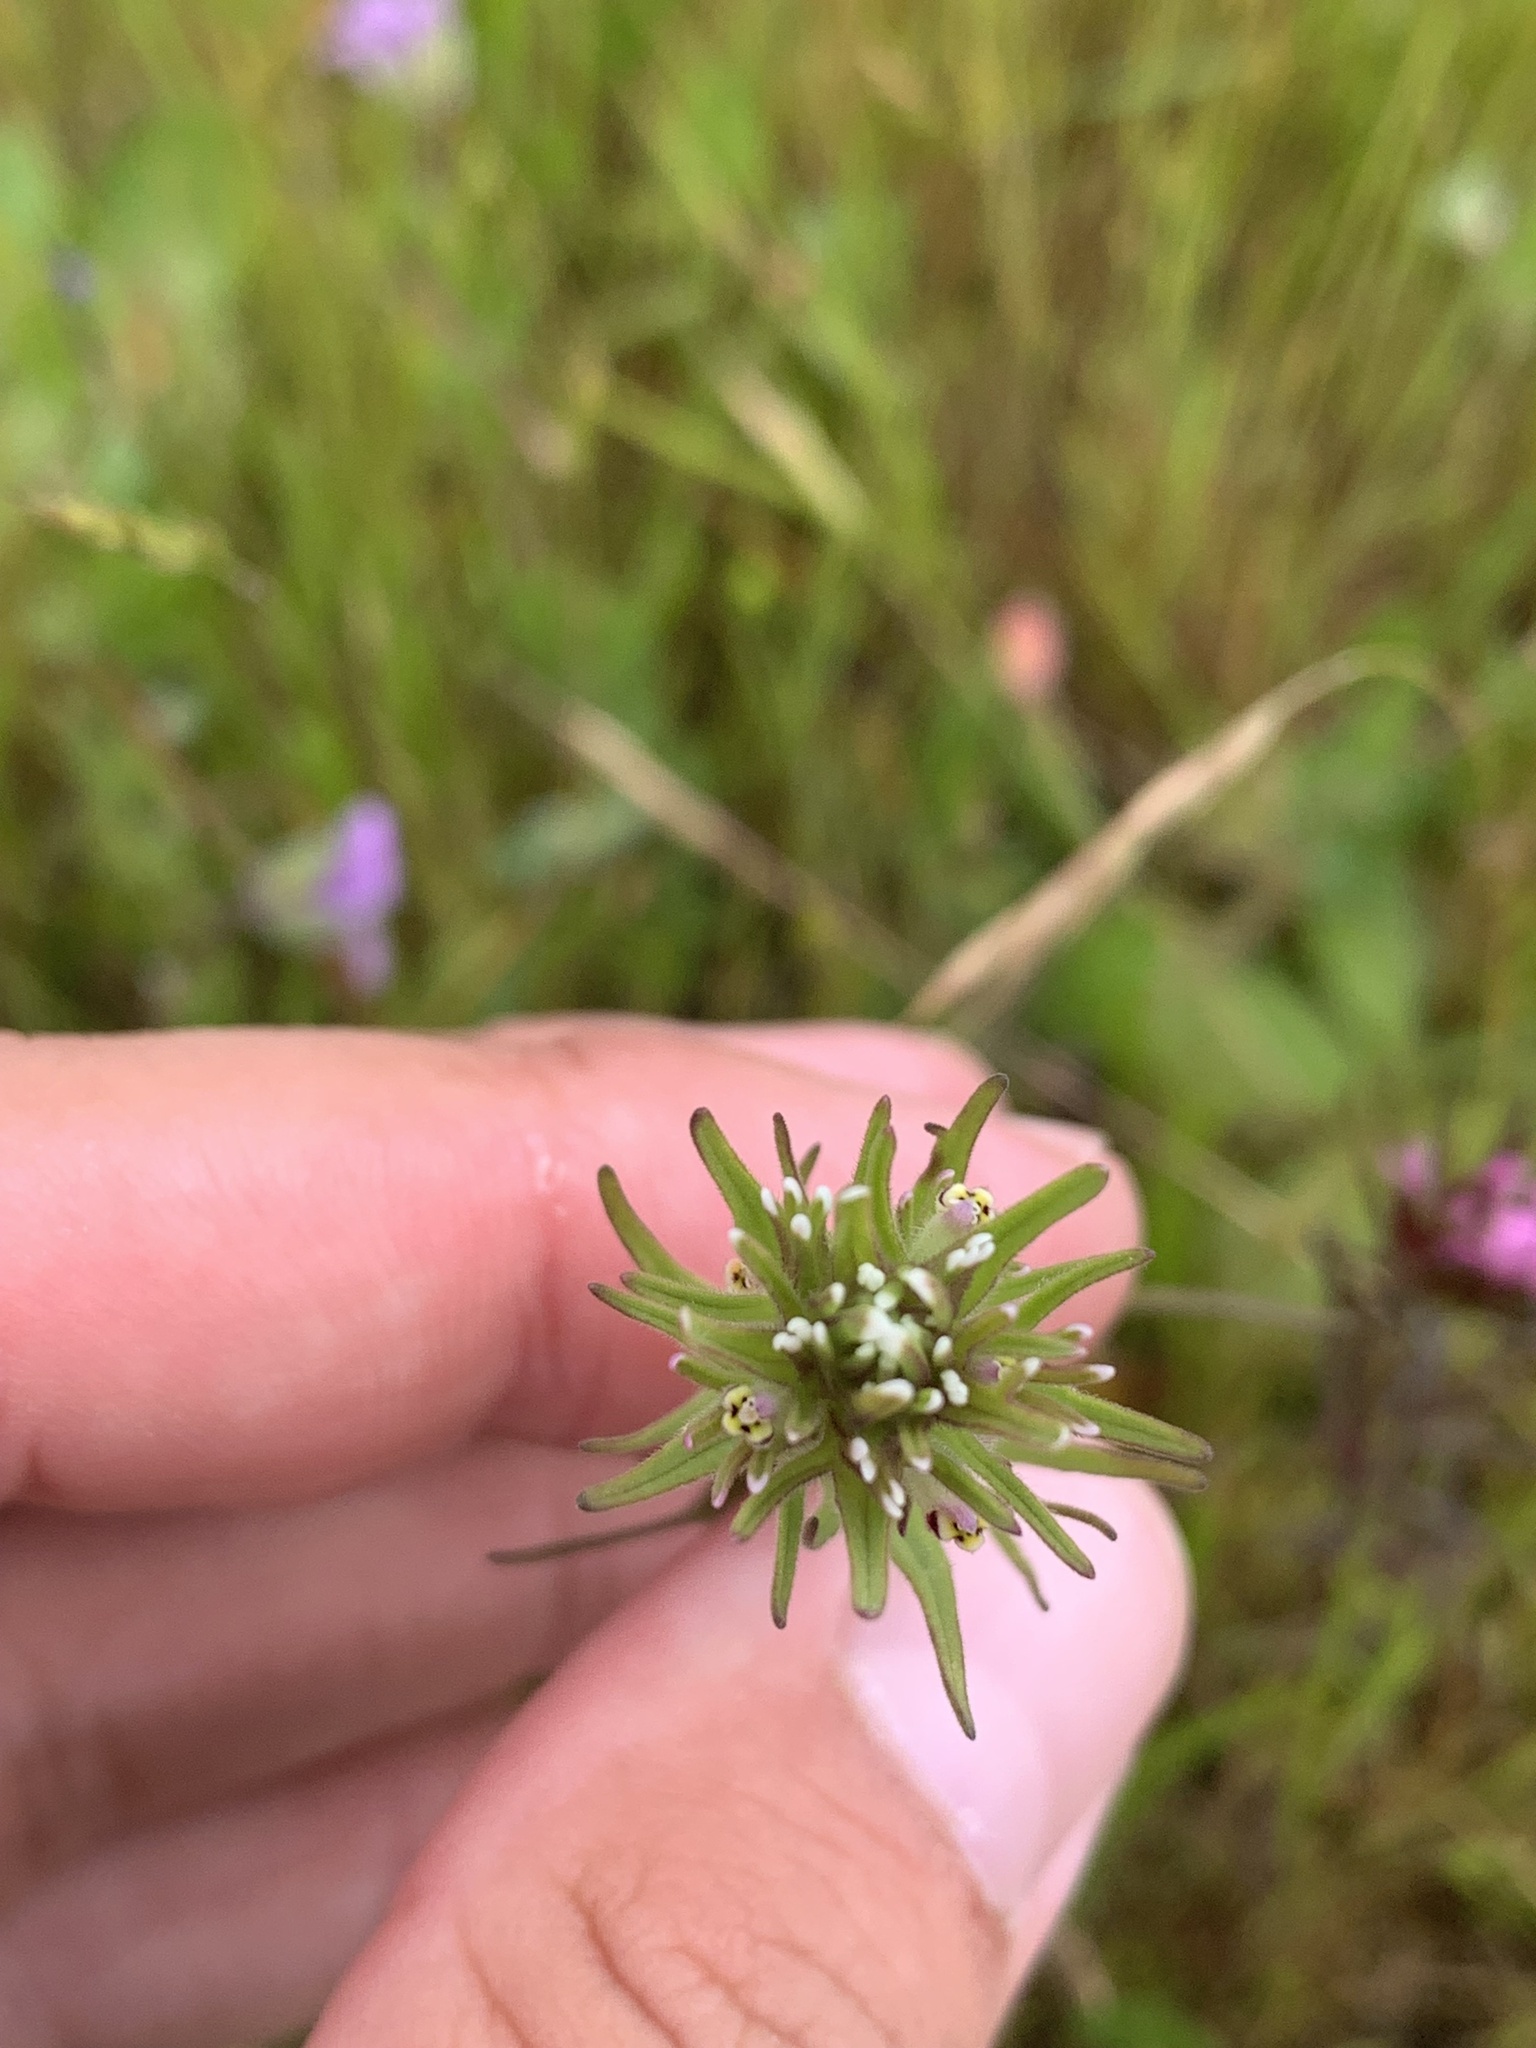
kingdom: Plantae
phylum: Tracheophyta
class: Magnoliopsida
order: Lamiales
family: Orobanchaceae
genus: Castilleja
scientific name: Castilleja attenuata
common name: Valley tassels
